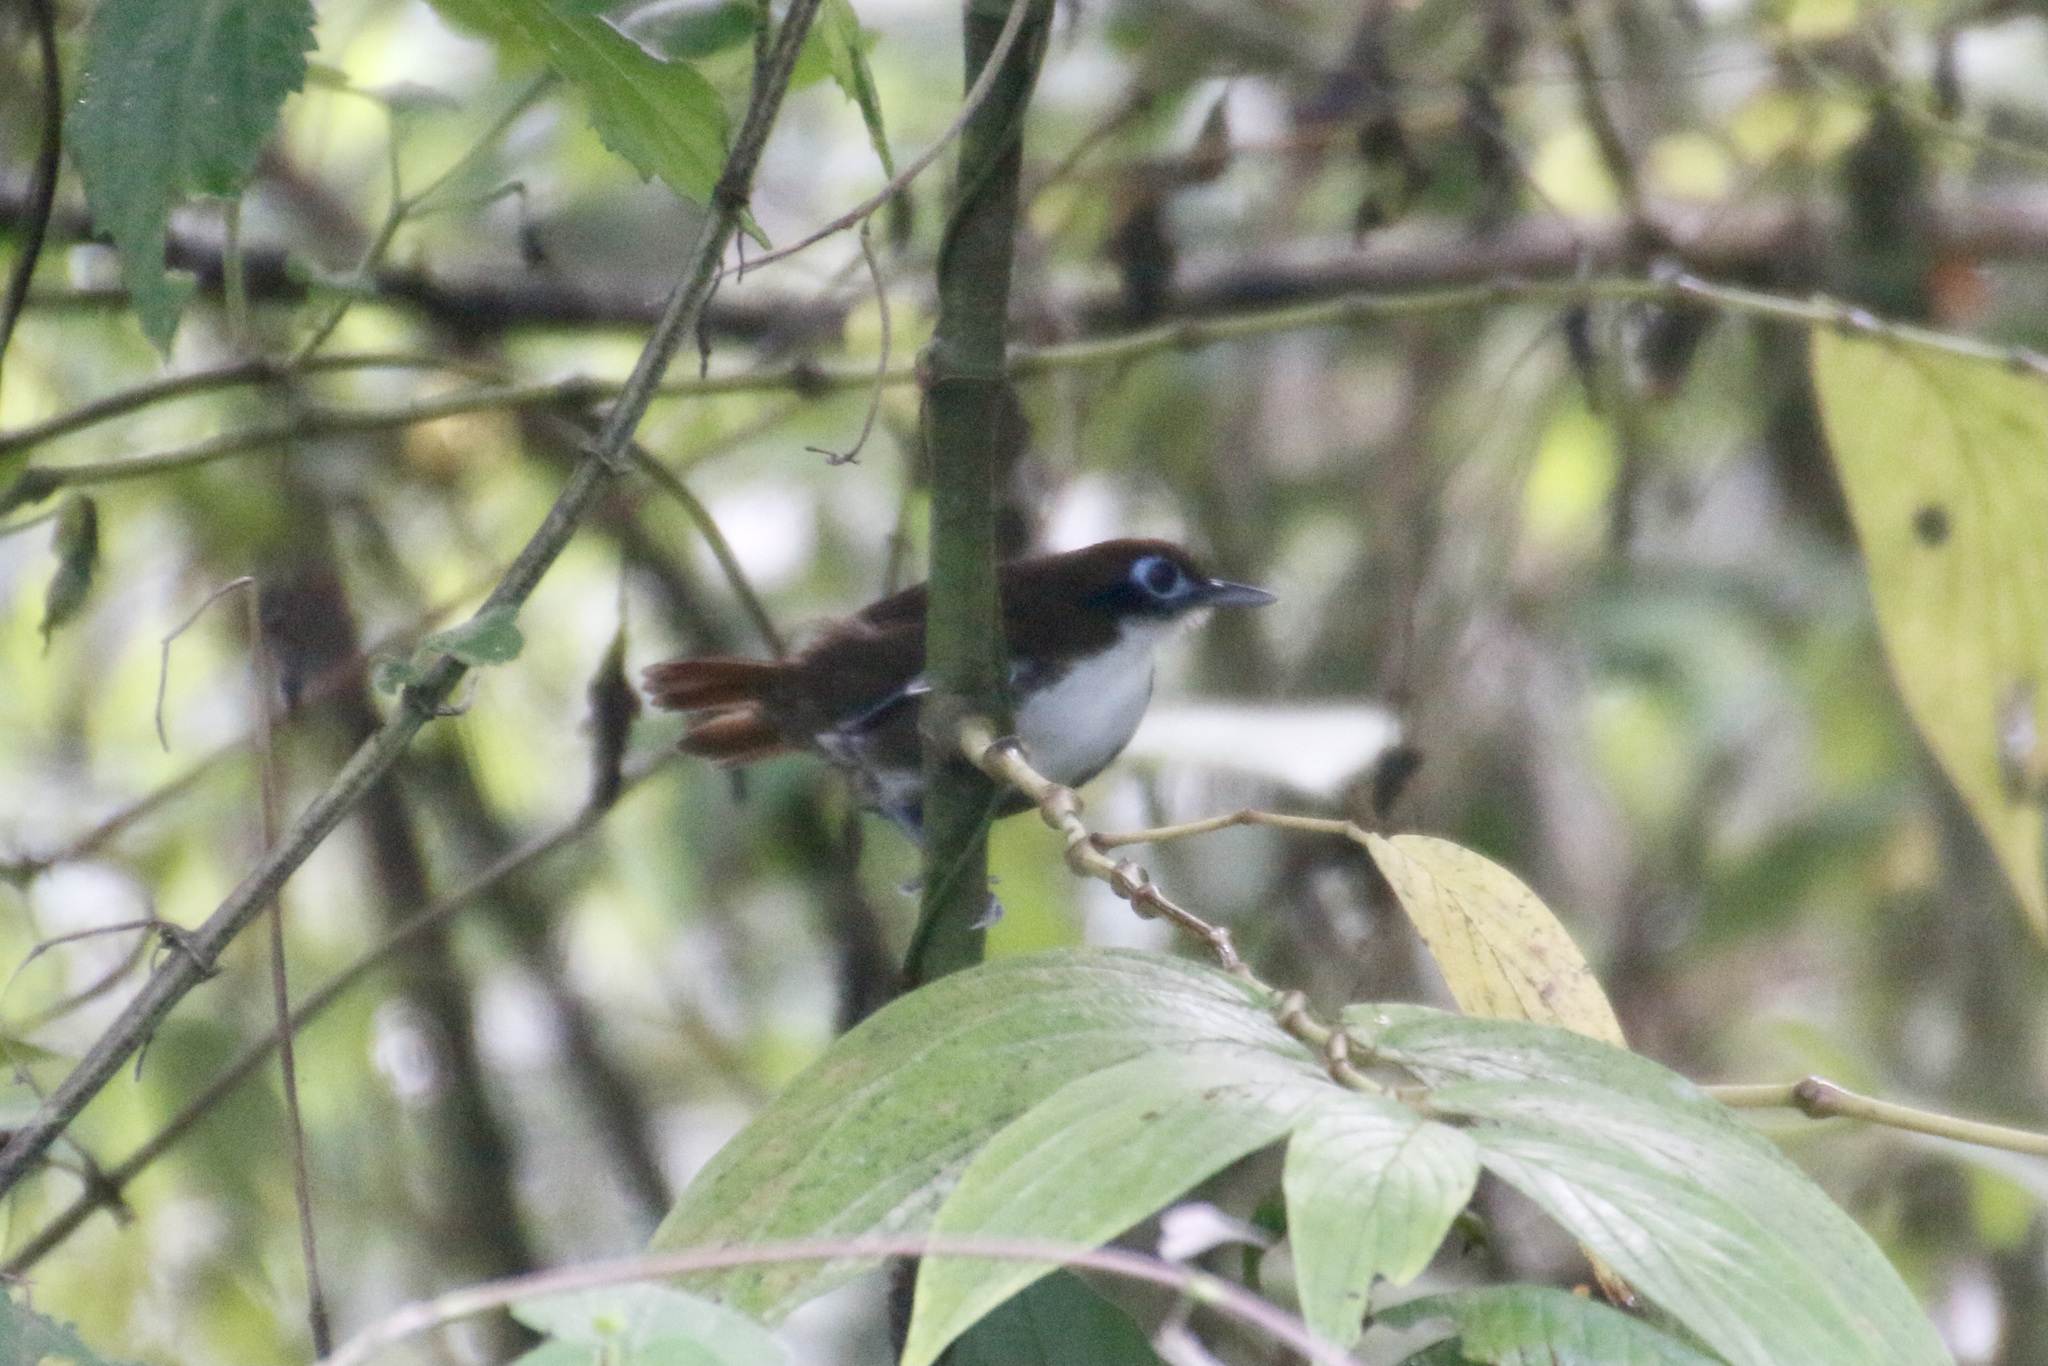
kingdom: Animalia
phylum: Chordata
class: Aves
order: Passeriformes
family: Thamnophilidae
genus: Gymnopithys
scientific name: Gymnopithys leucaspis
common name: White-cheeked antbird
